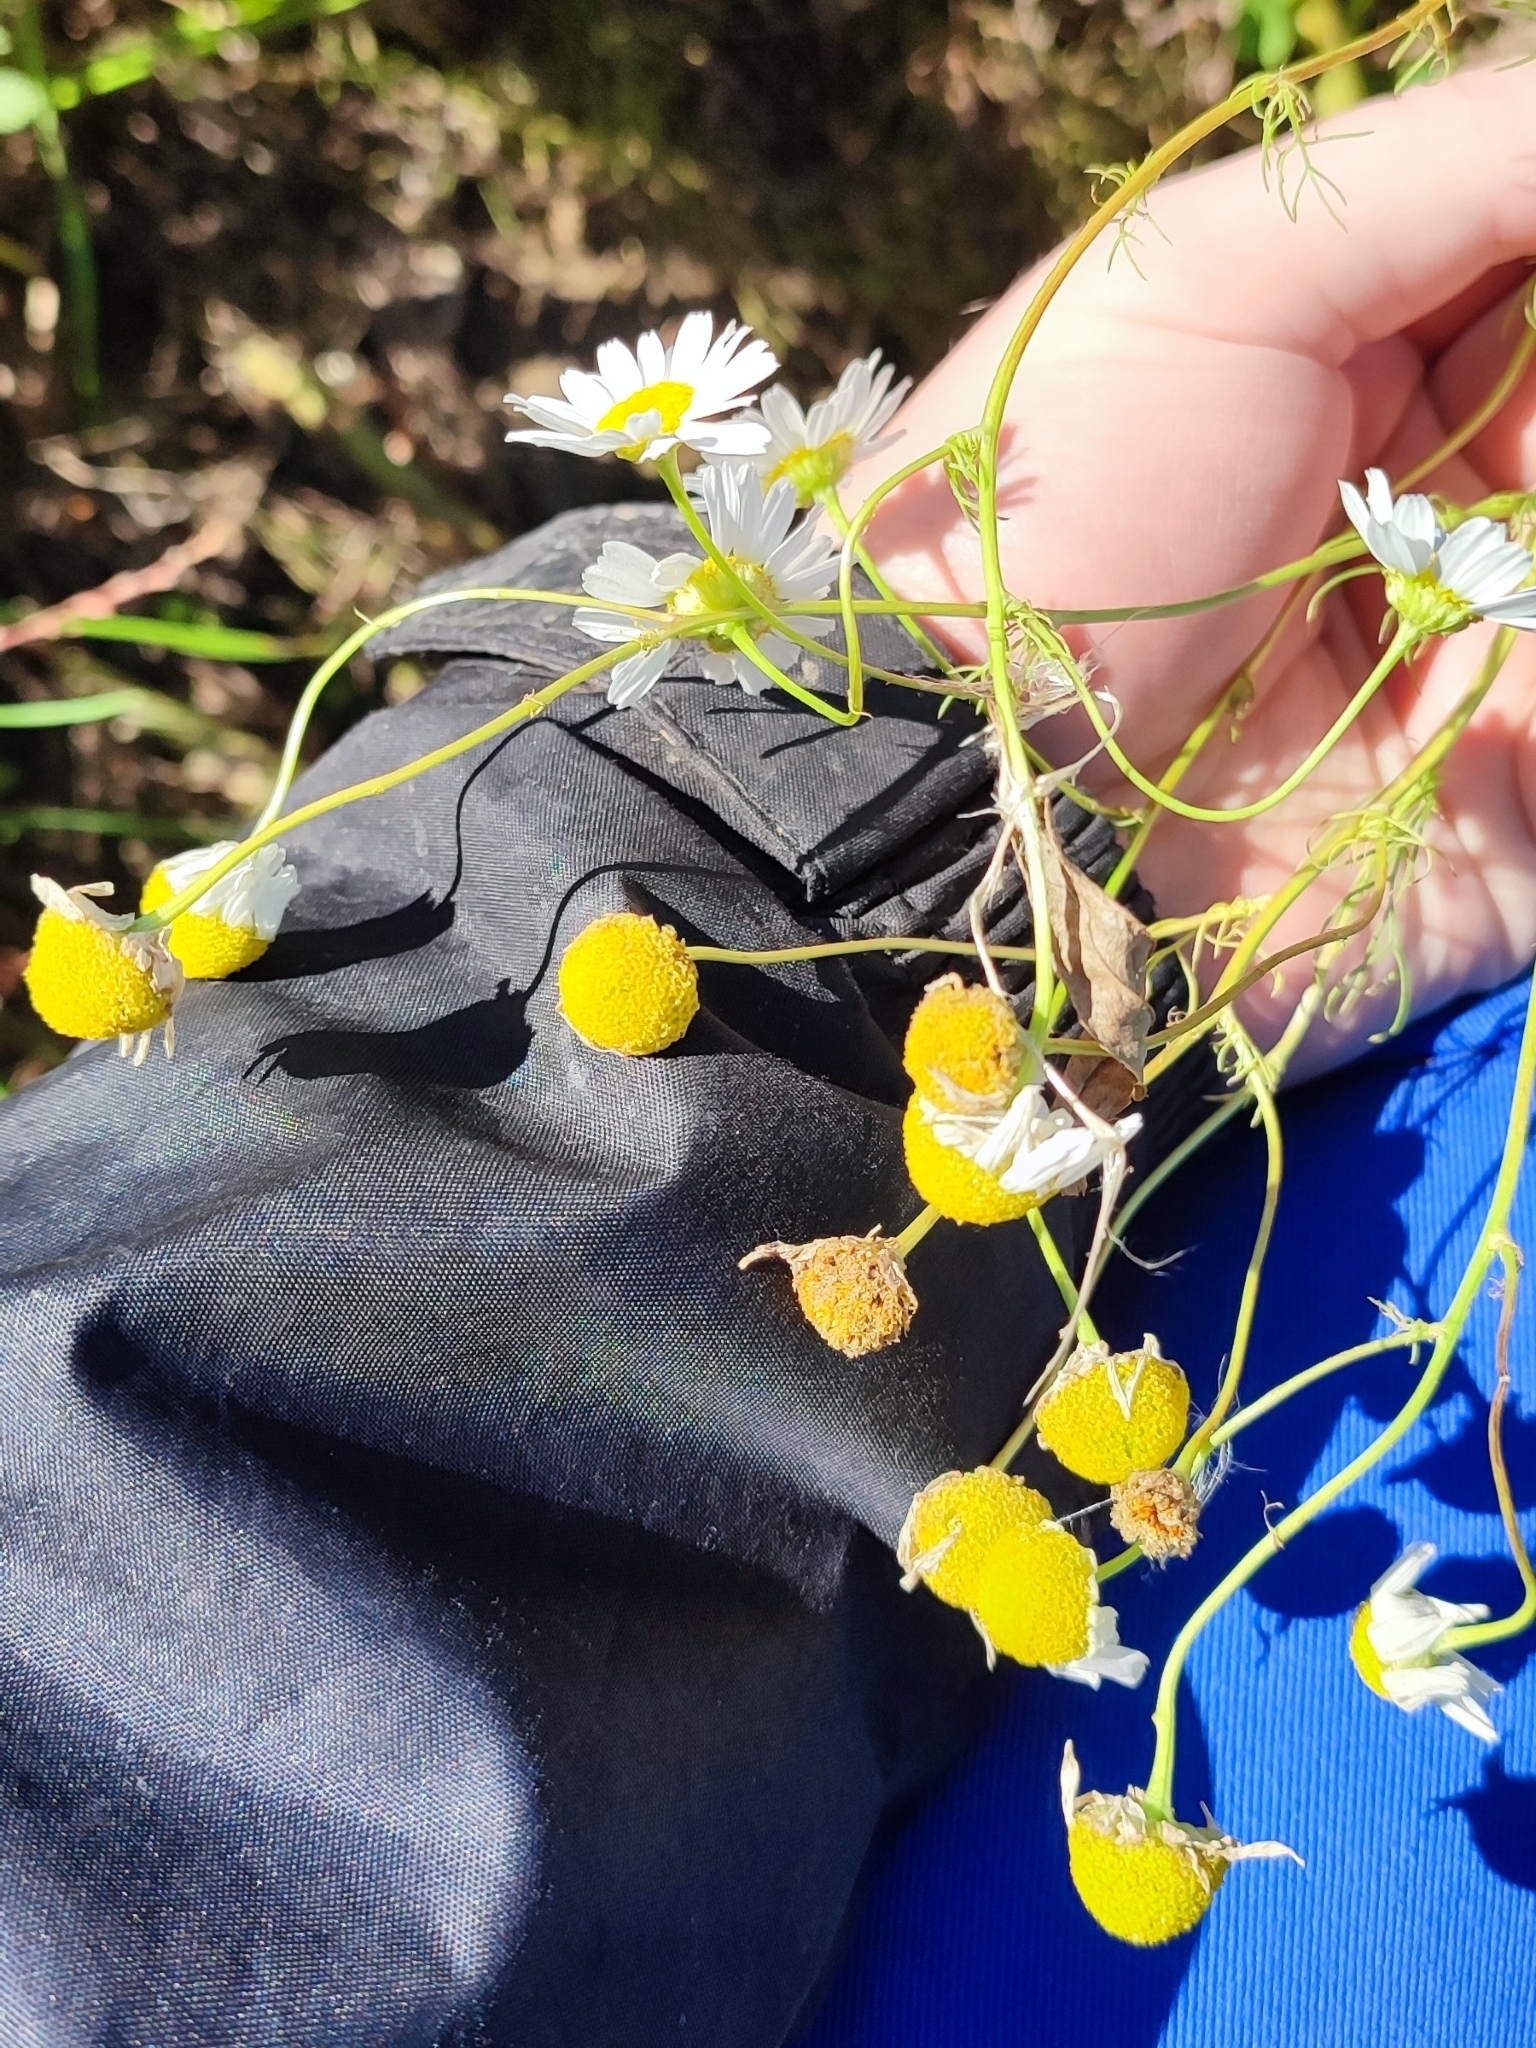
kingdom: Plantae
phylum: Tracheophyta
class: Magnoliopsida
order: Asterales
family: Asteraceae
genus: Tripleurospermum
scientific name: Tripleurospermum inodorum
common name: Scentless mayweed
